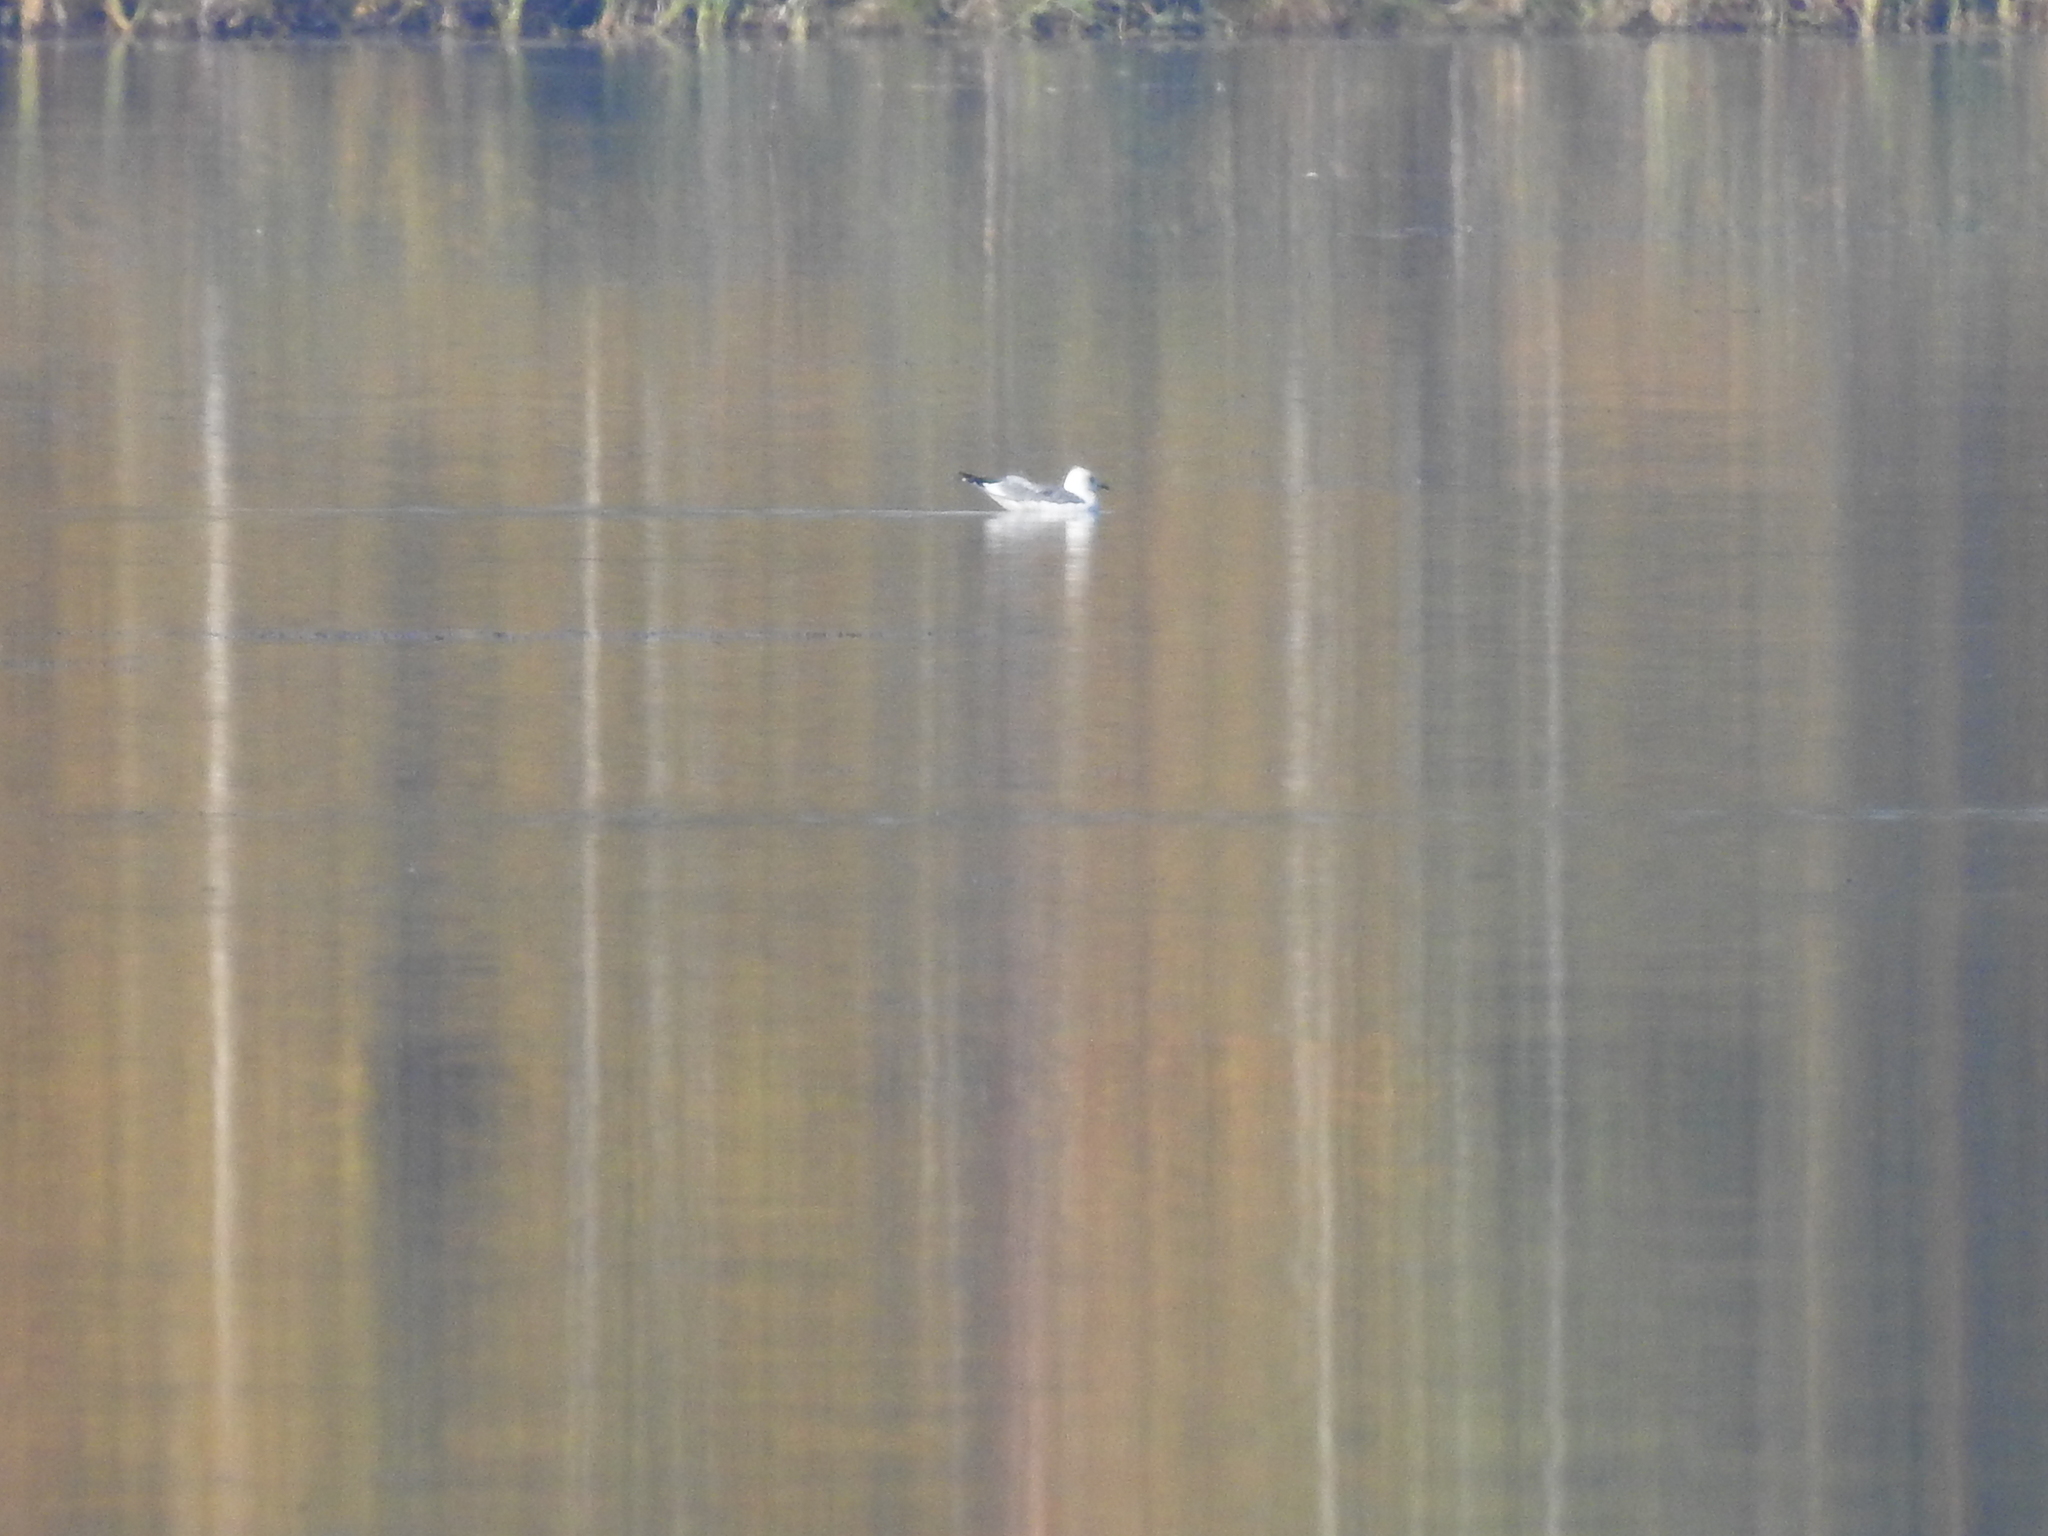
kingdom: Animalia
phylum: Chordata
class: Aves
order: Charadriiformes
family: Laridae
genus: Larus
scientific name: Larus canus
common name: Mew gull
